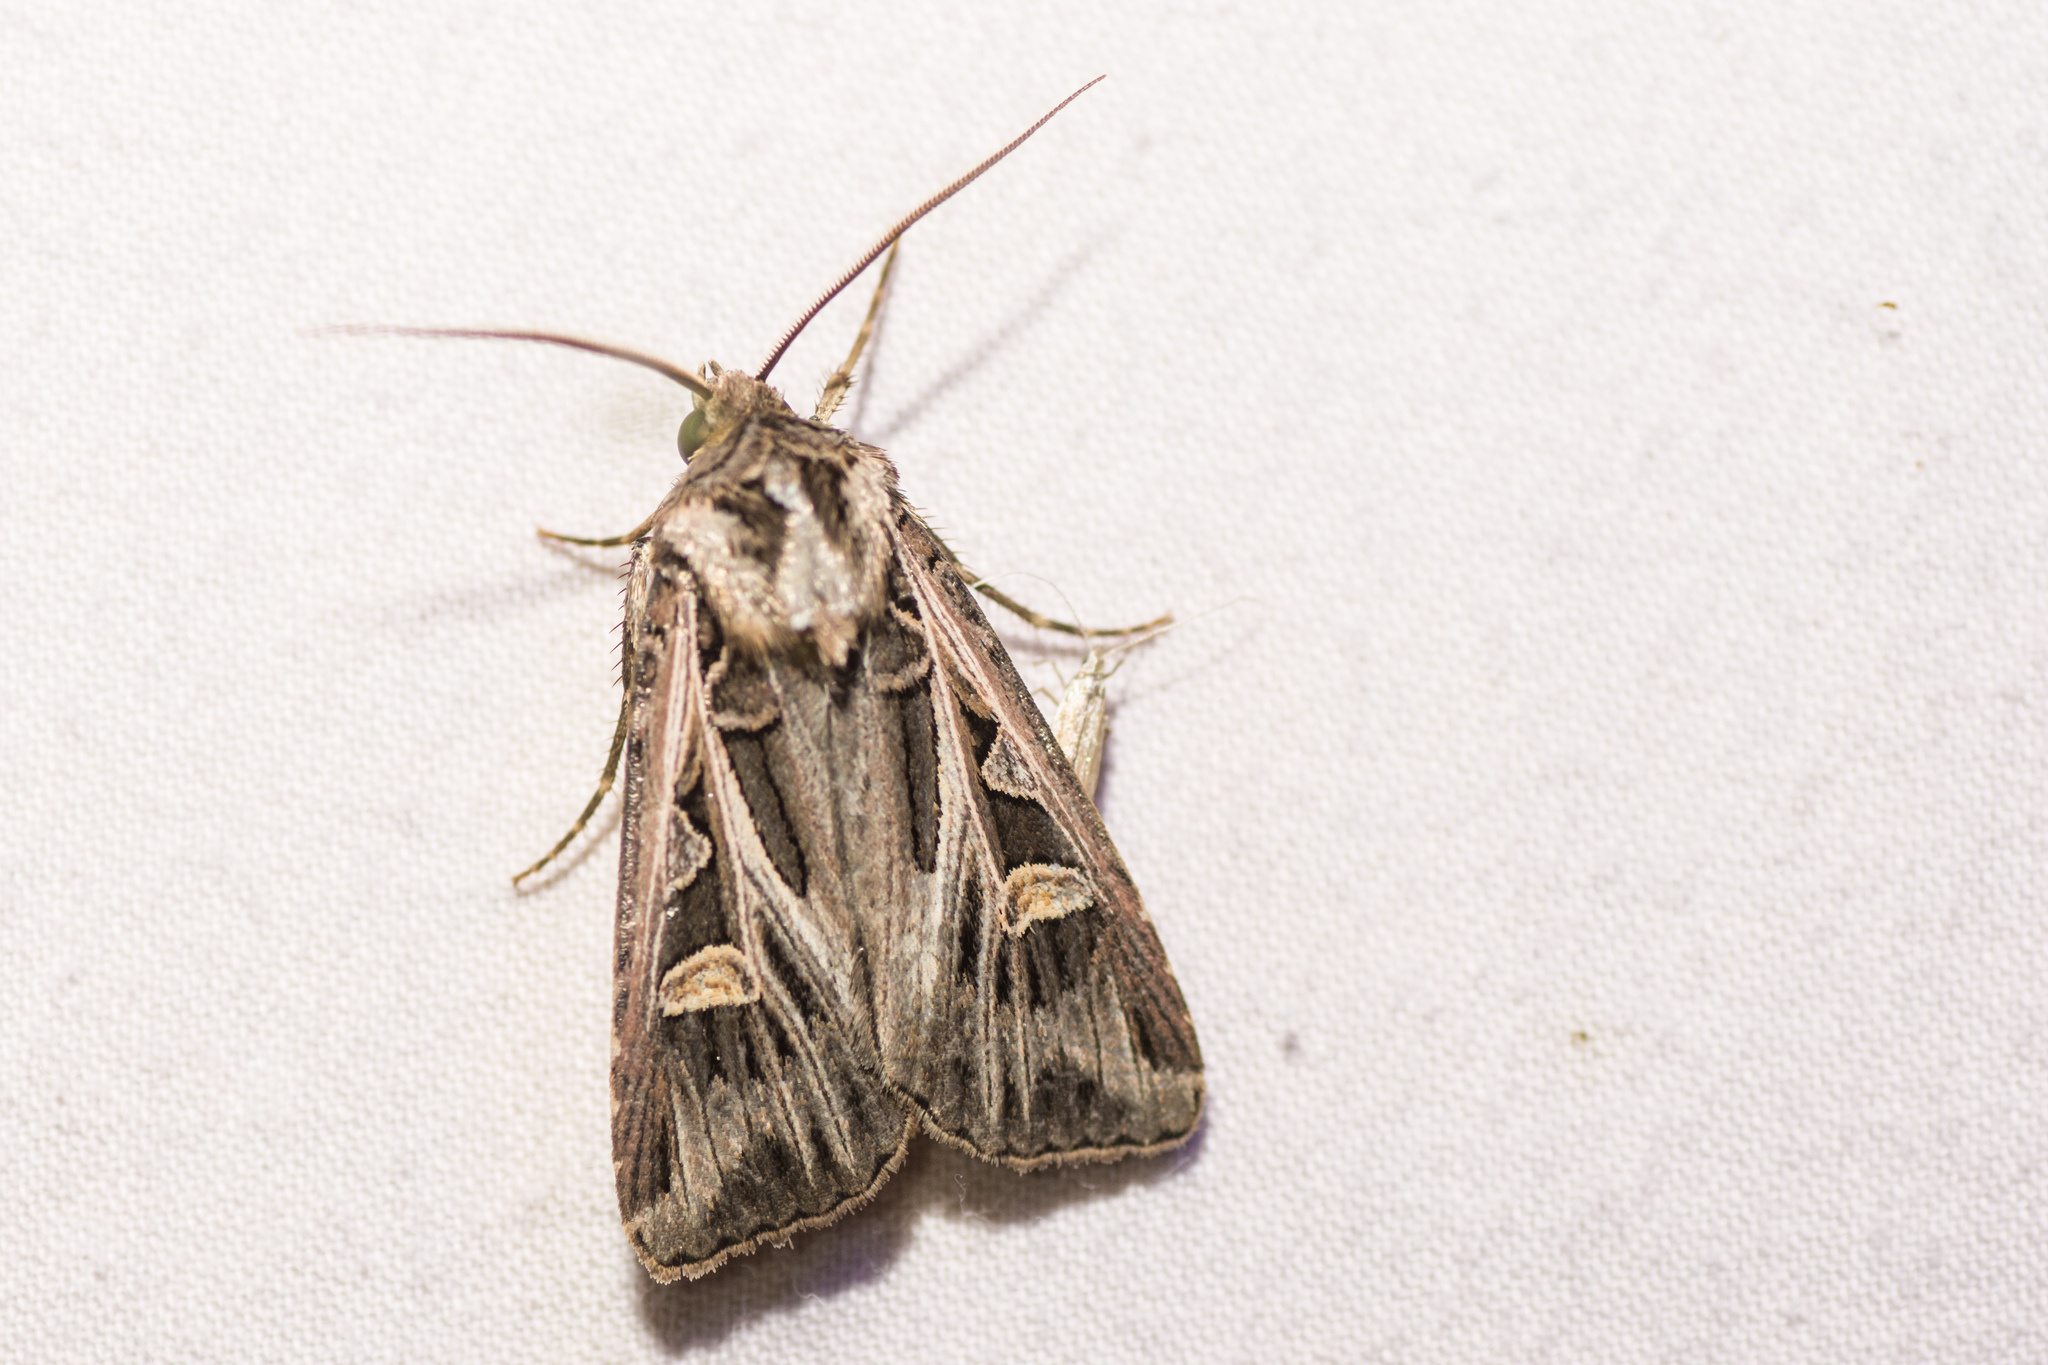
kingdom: Animalia
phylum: Arthropoda
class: Insecta
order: Lepidoptera
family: Noctuidae
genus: Feltia
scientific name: Feltia jaculifera
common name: Dingy cutworm moth
